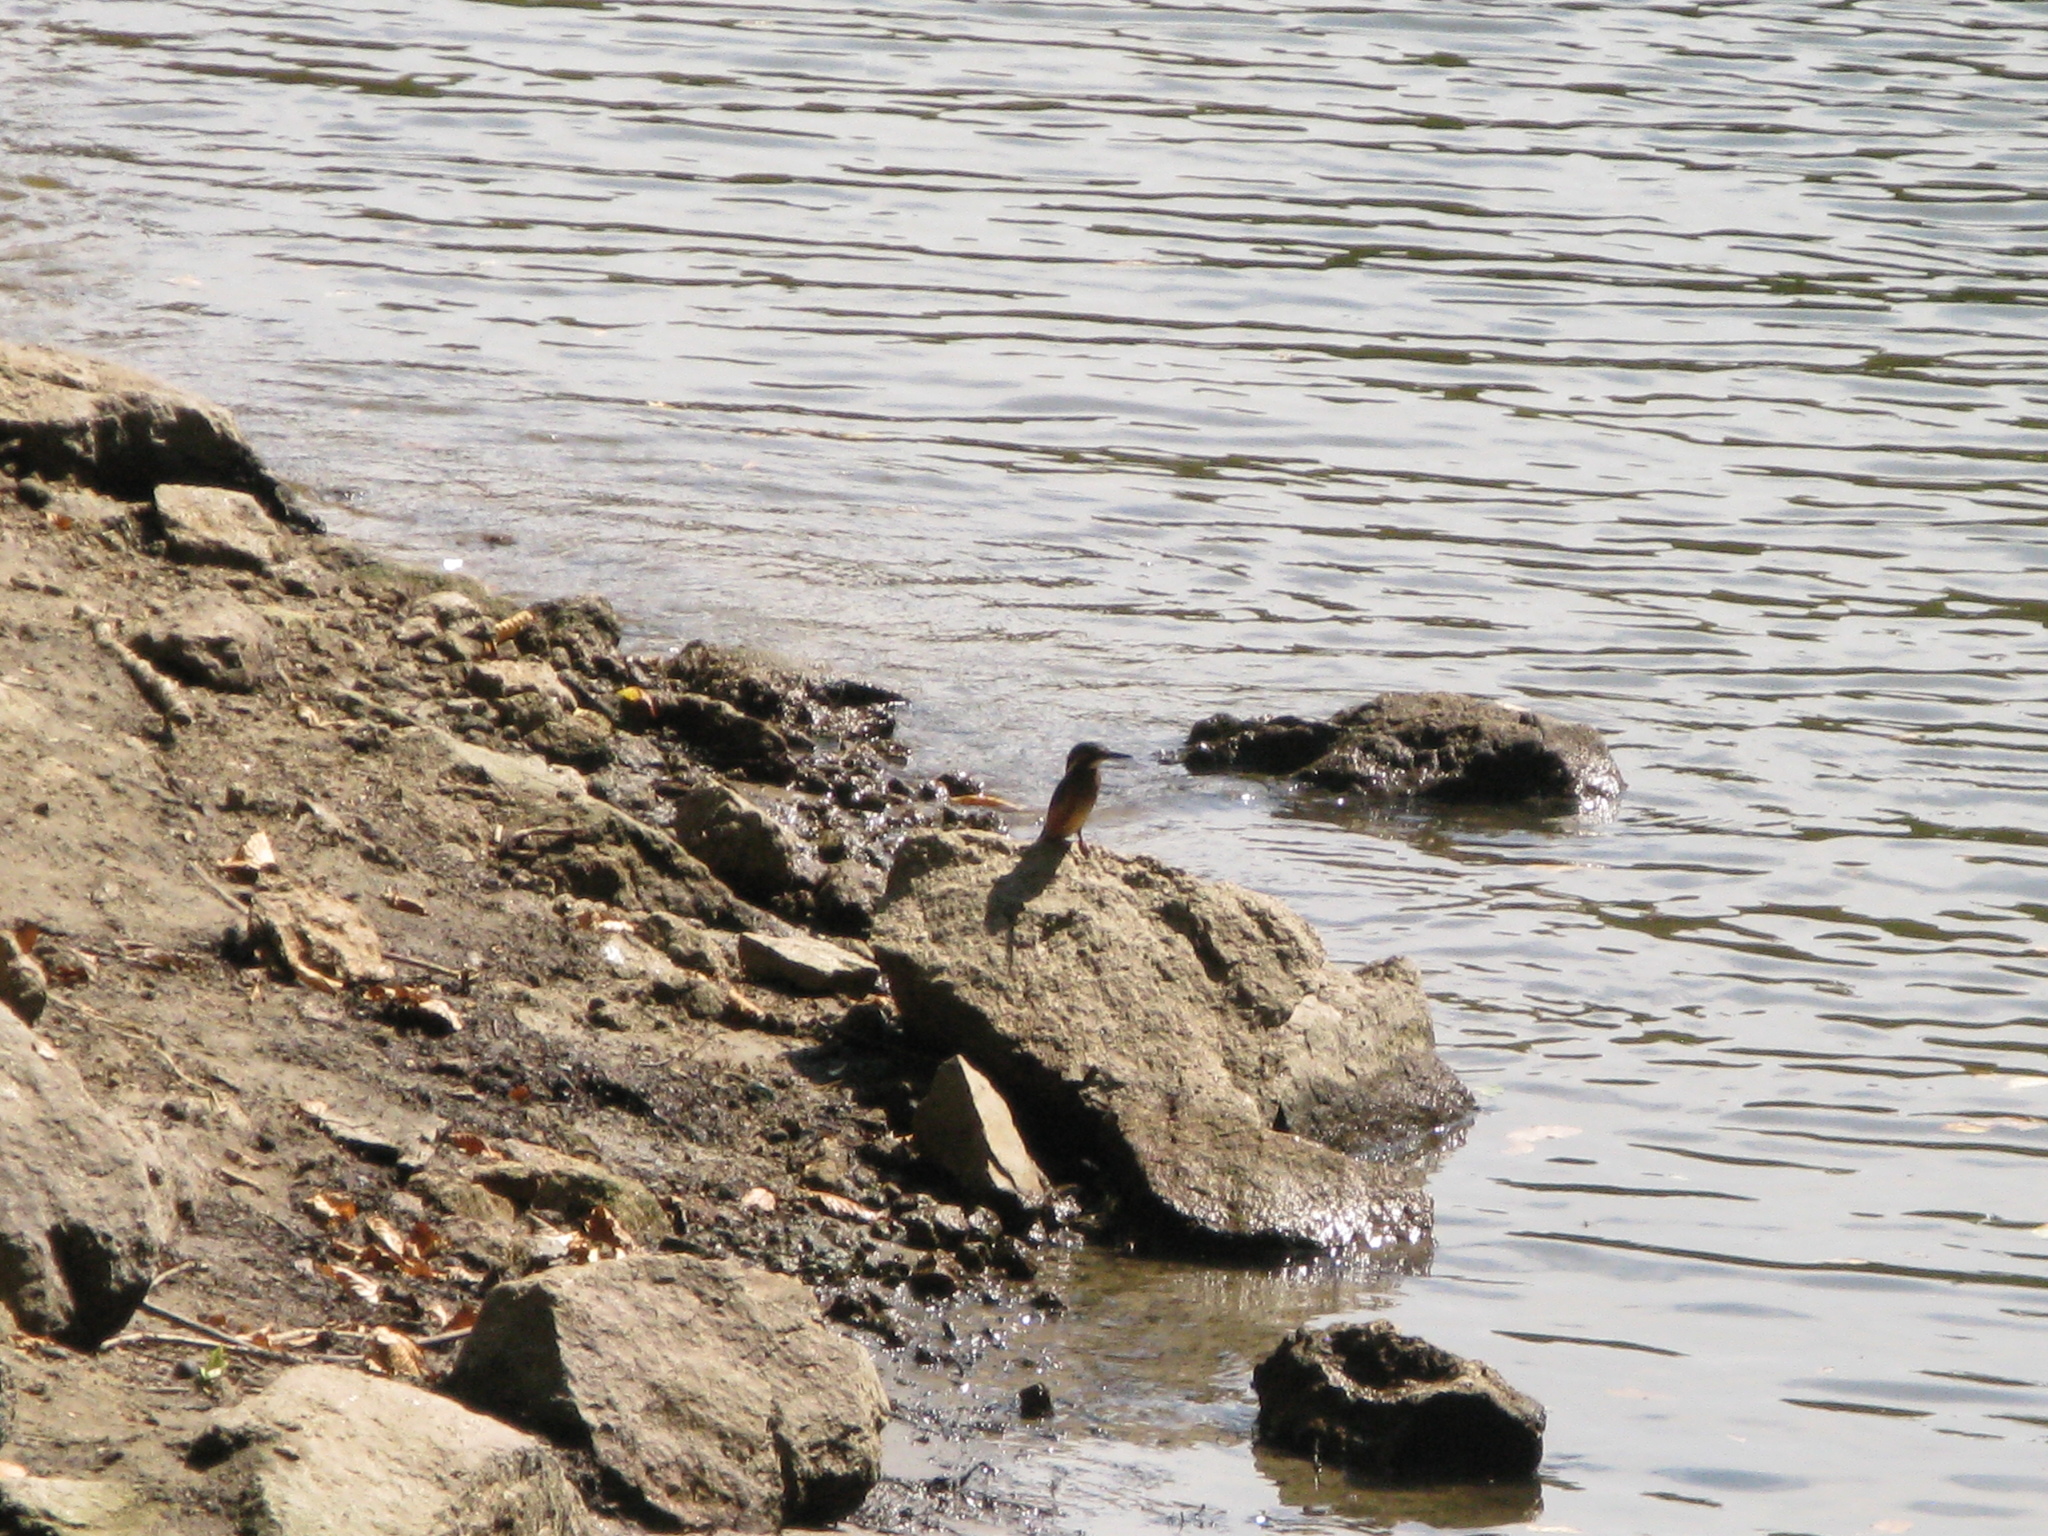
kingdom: Animalia
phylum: Chordata
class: Aves
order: Coraciiformes
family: Alcedinidae
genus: Alcedo
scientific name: Alcedo atthis
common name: Common kingfisher
